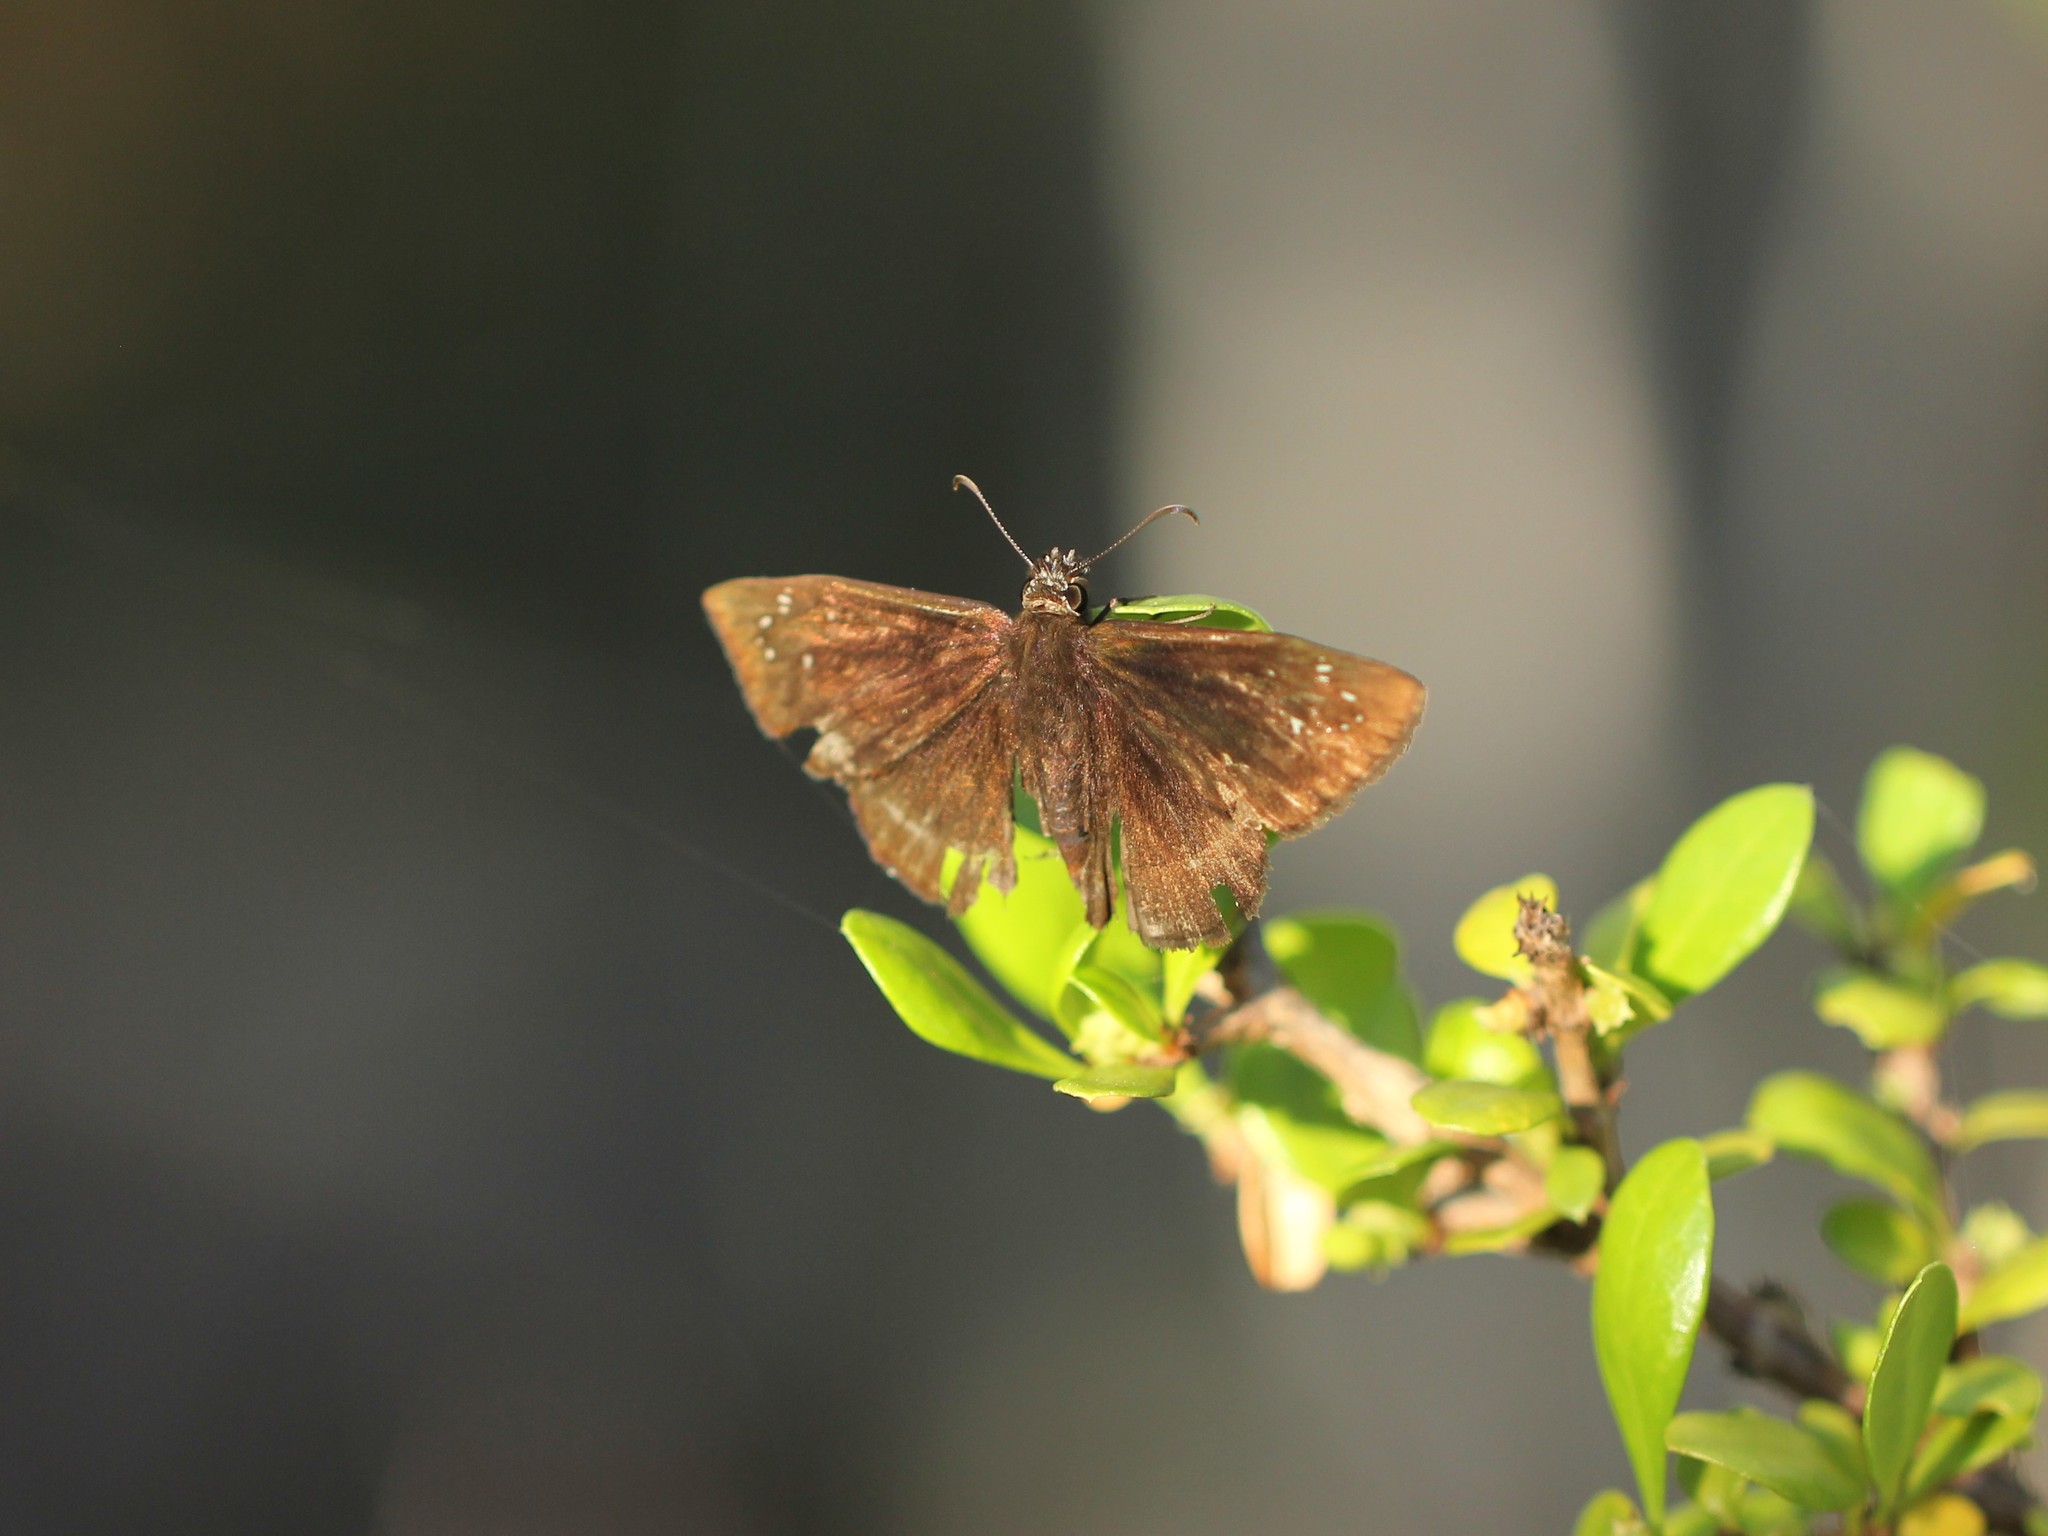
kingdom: Animalia
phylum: Arthropoda
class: Insecta
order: Lepidoptera
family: Hesperiidae
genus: Ephyriades
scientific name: Ephyriades brunnea
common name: Florida duskywing
